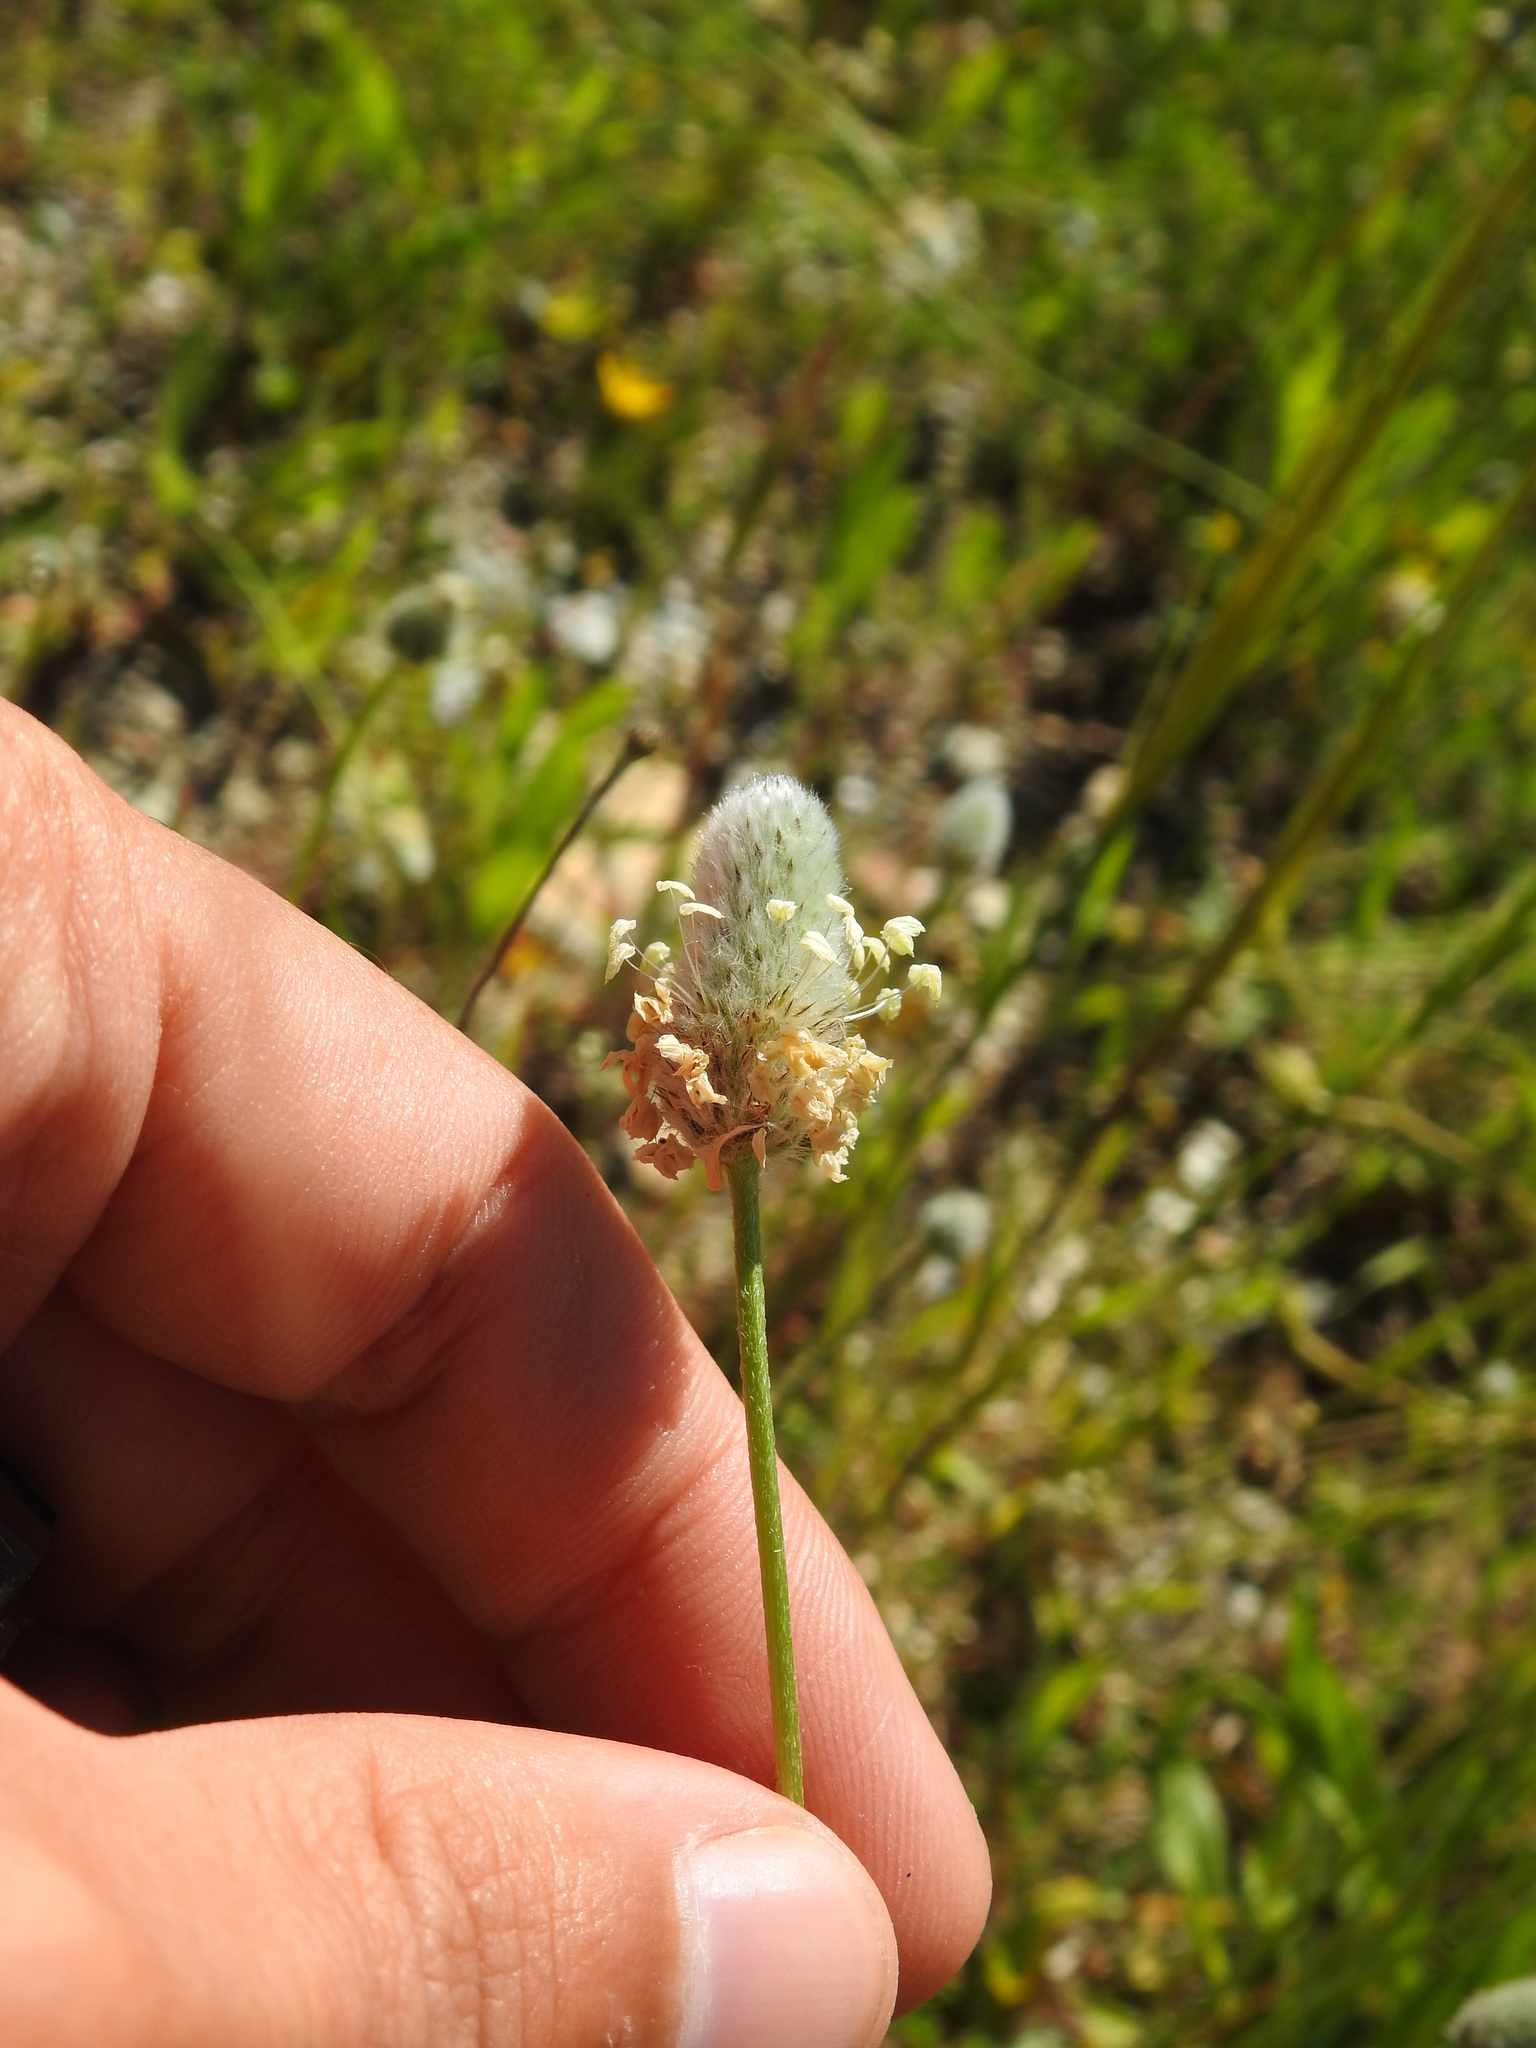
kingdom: Plantae
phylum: Tracheophyta
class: Magnoliopsida
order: Lamiales
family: Plantaginaceae
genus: Plantago
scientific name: Plantago lagopus
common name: Hare-foot plantain
